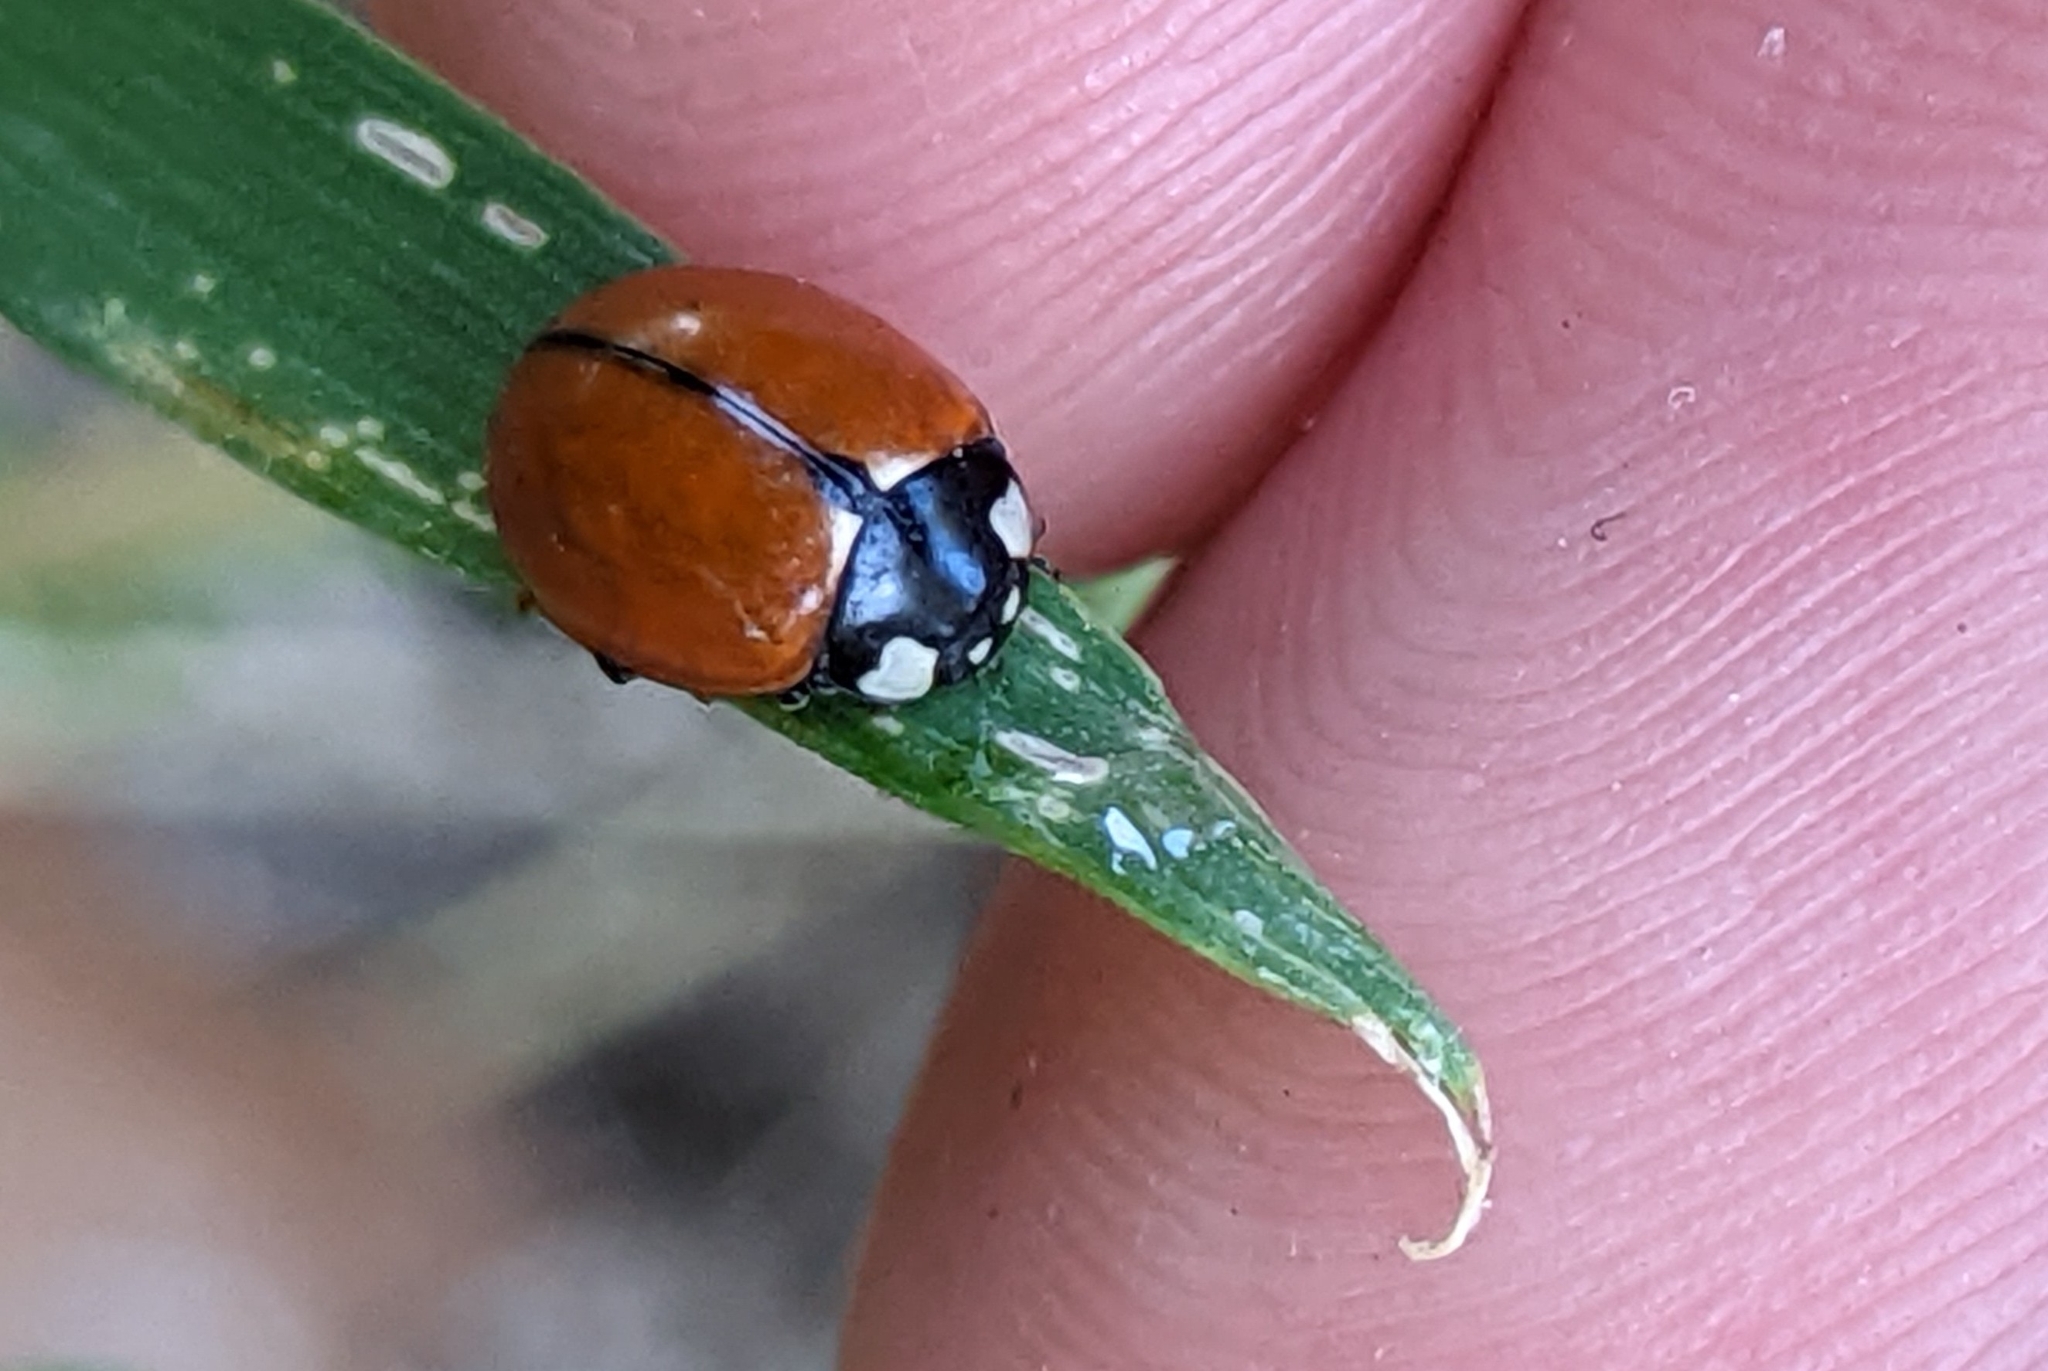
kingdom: Animalia
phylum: Arthropoda
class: Insecta
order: Coleoptera
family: Coccinellidae
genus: Coccinella
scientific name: Coccinella californica
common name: Lady beetle
